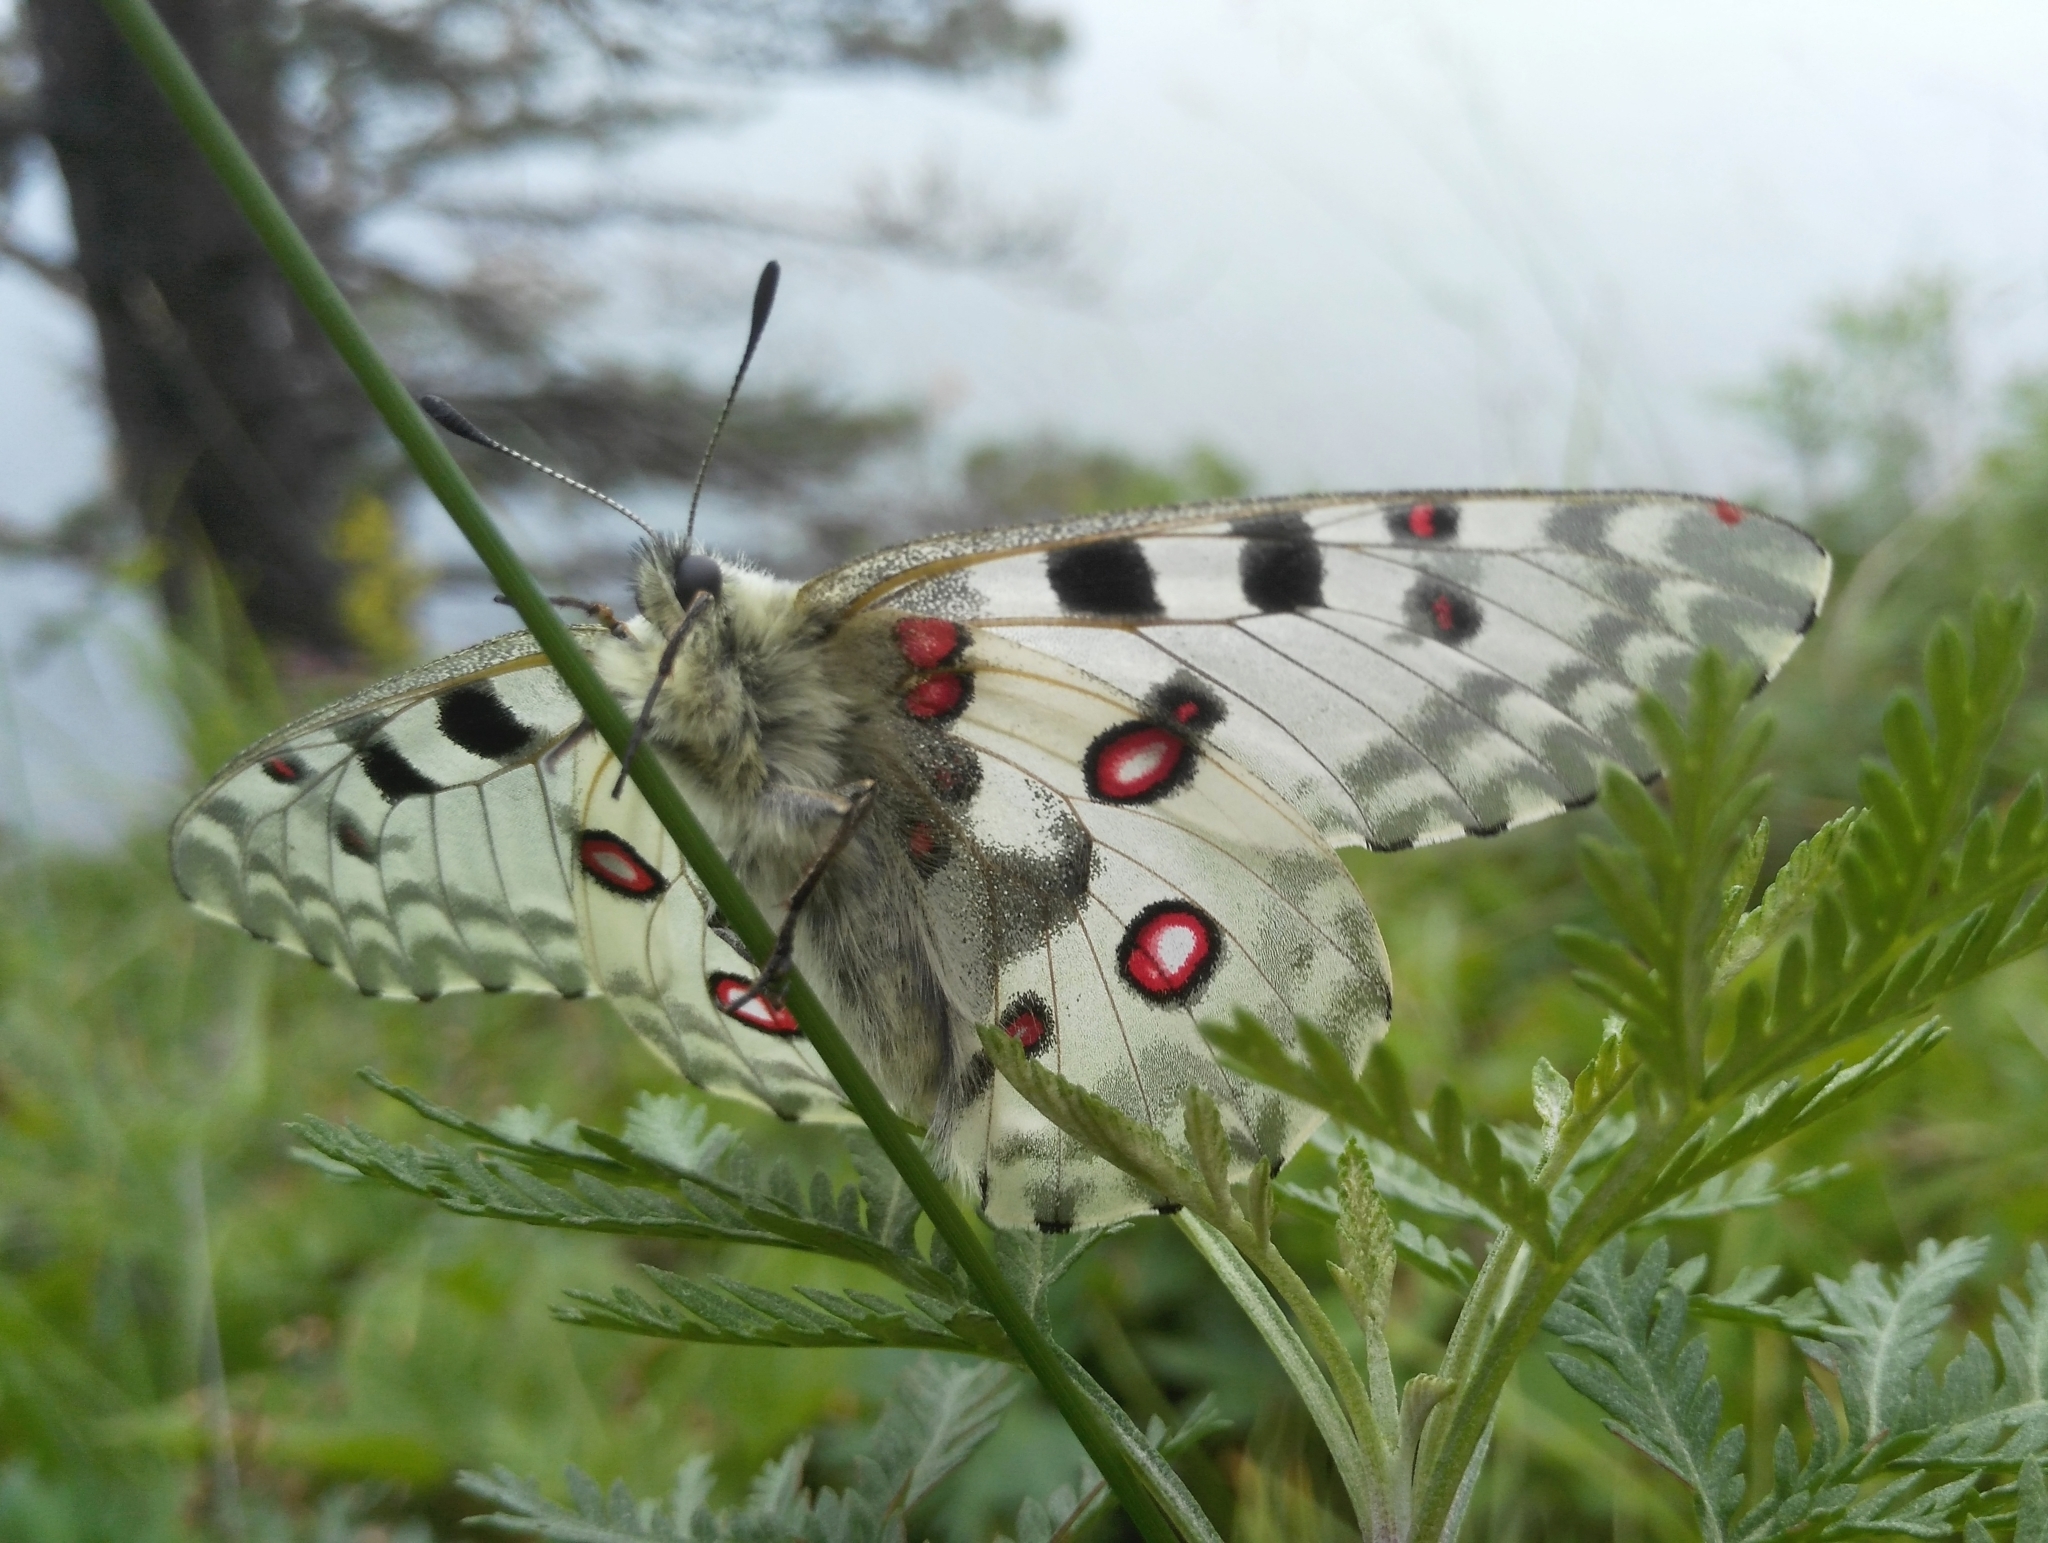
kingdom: Animalia
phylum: Arthropoda
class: Insecta
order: Lepidoptera
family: Papilionidae
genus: Parnassius
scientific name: Parnassius nomion
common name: Nomion apollo
